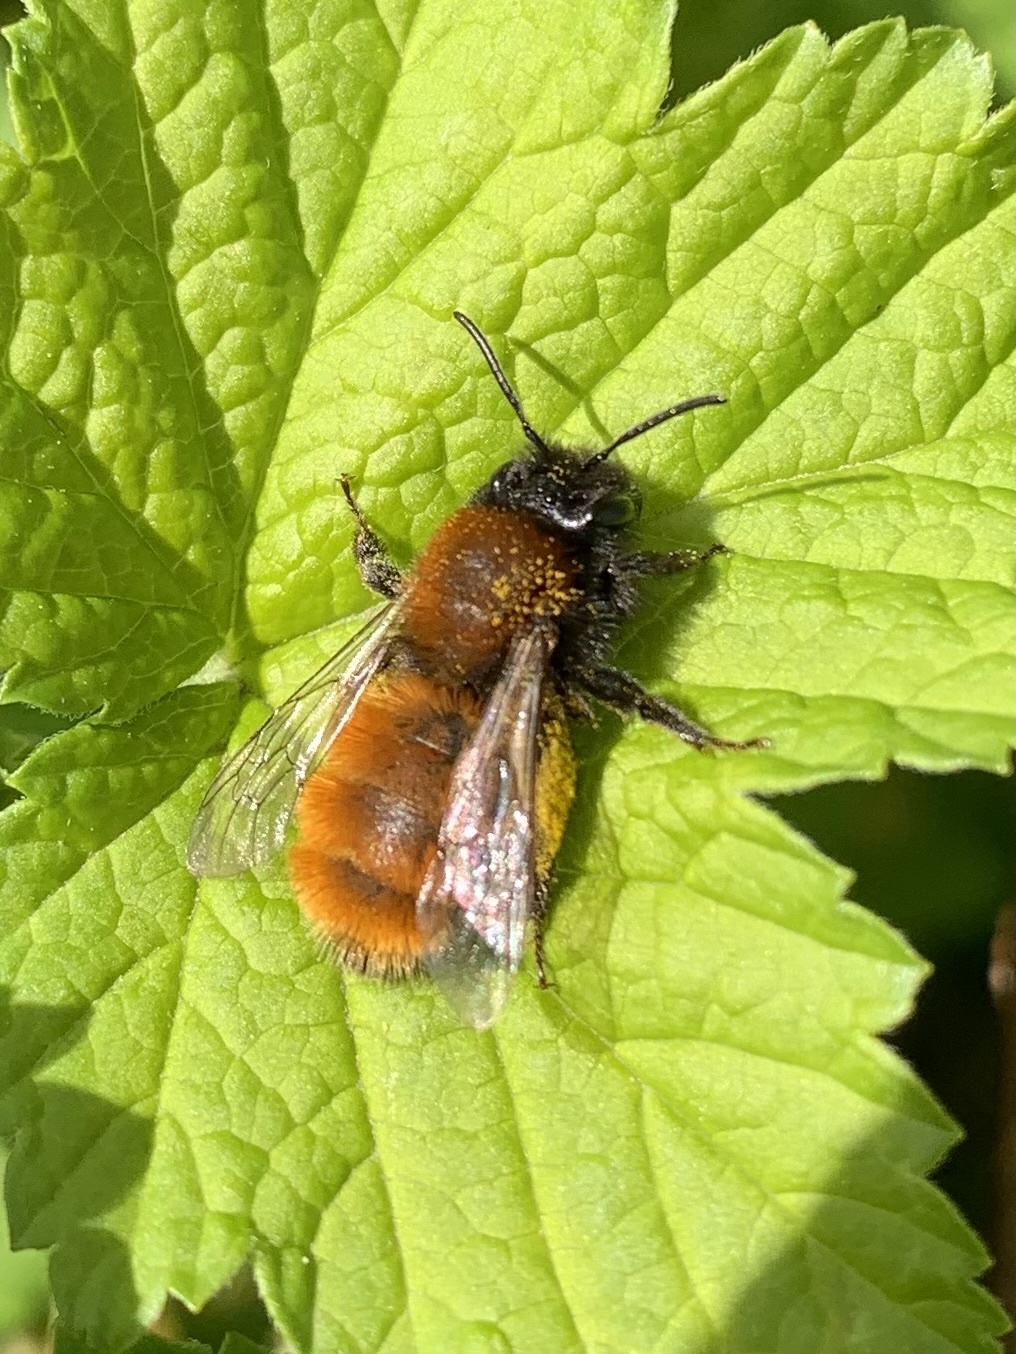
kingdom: Animalia
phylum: Arthropoda
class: Insecta
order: Hymenoptera
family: Andrenidae
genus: Andrena
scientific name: Andrena fulva
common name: Tawny mining bee
